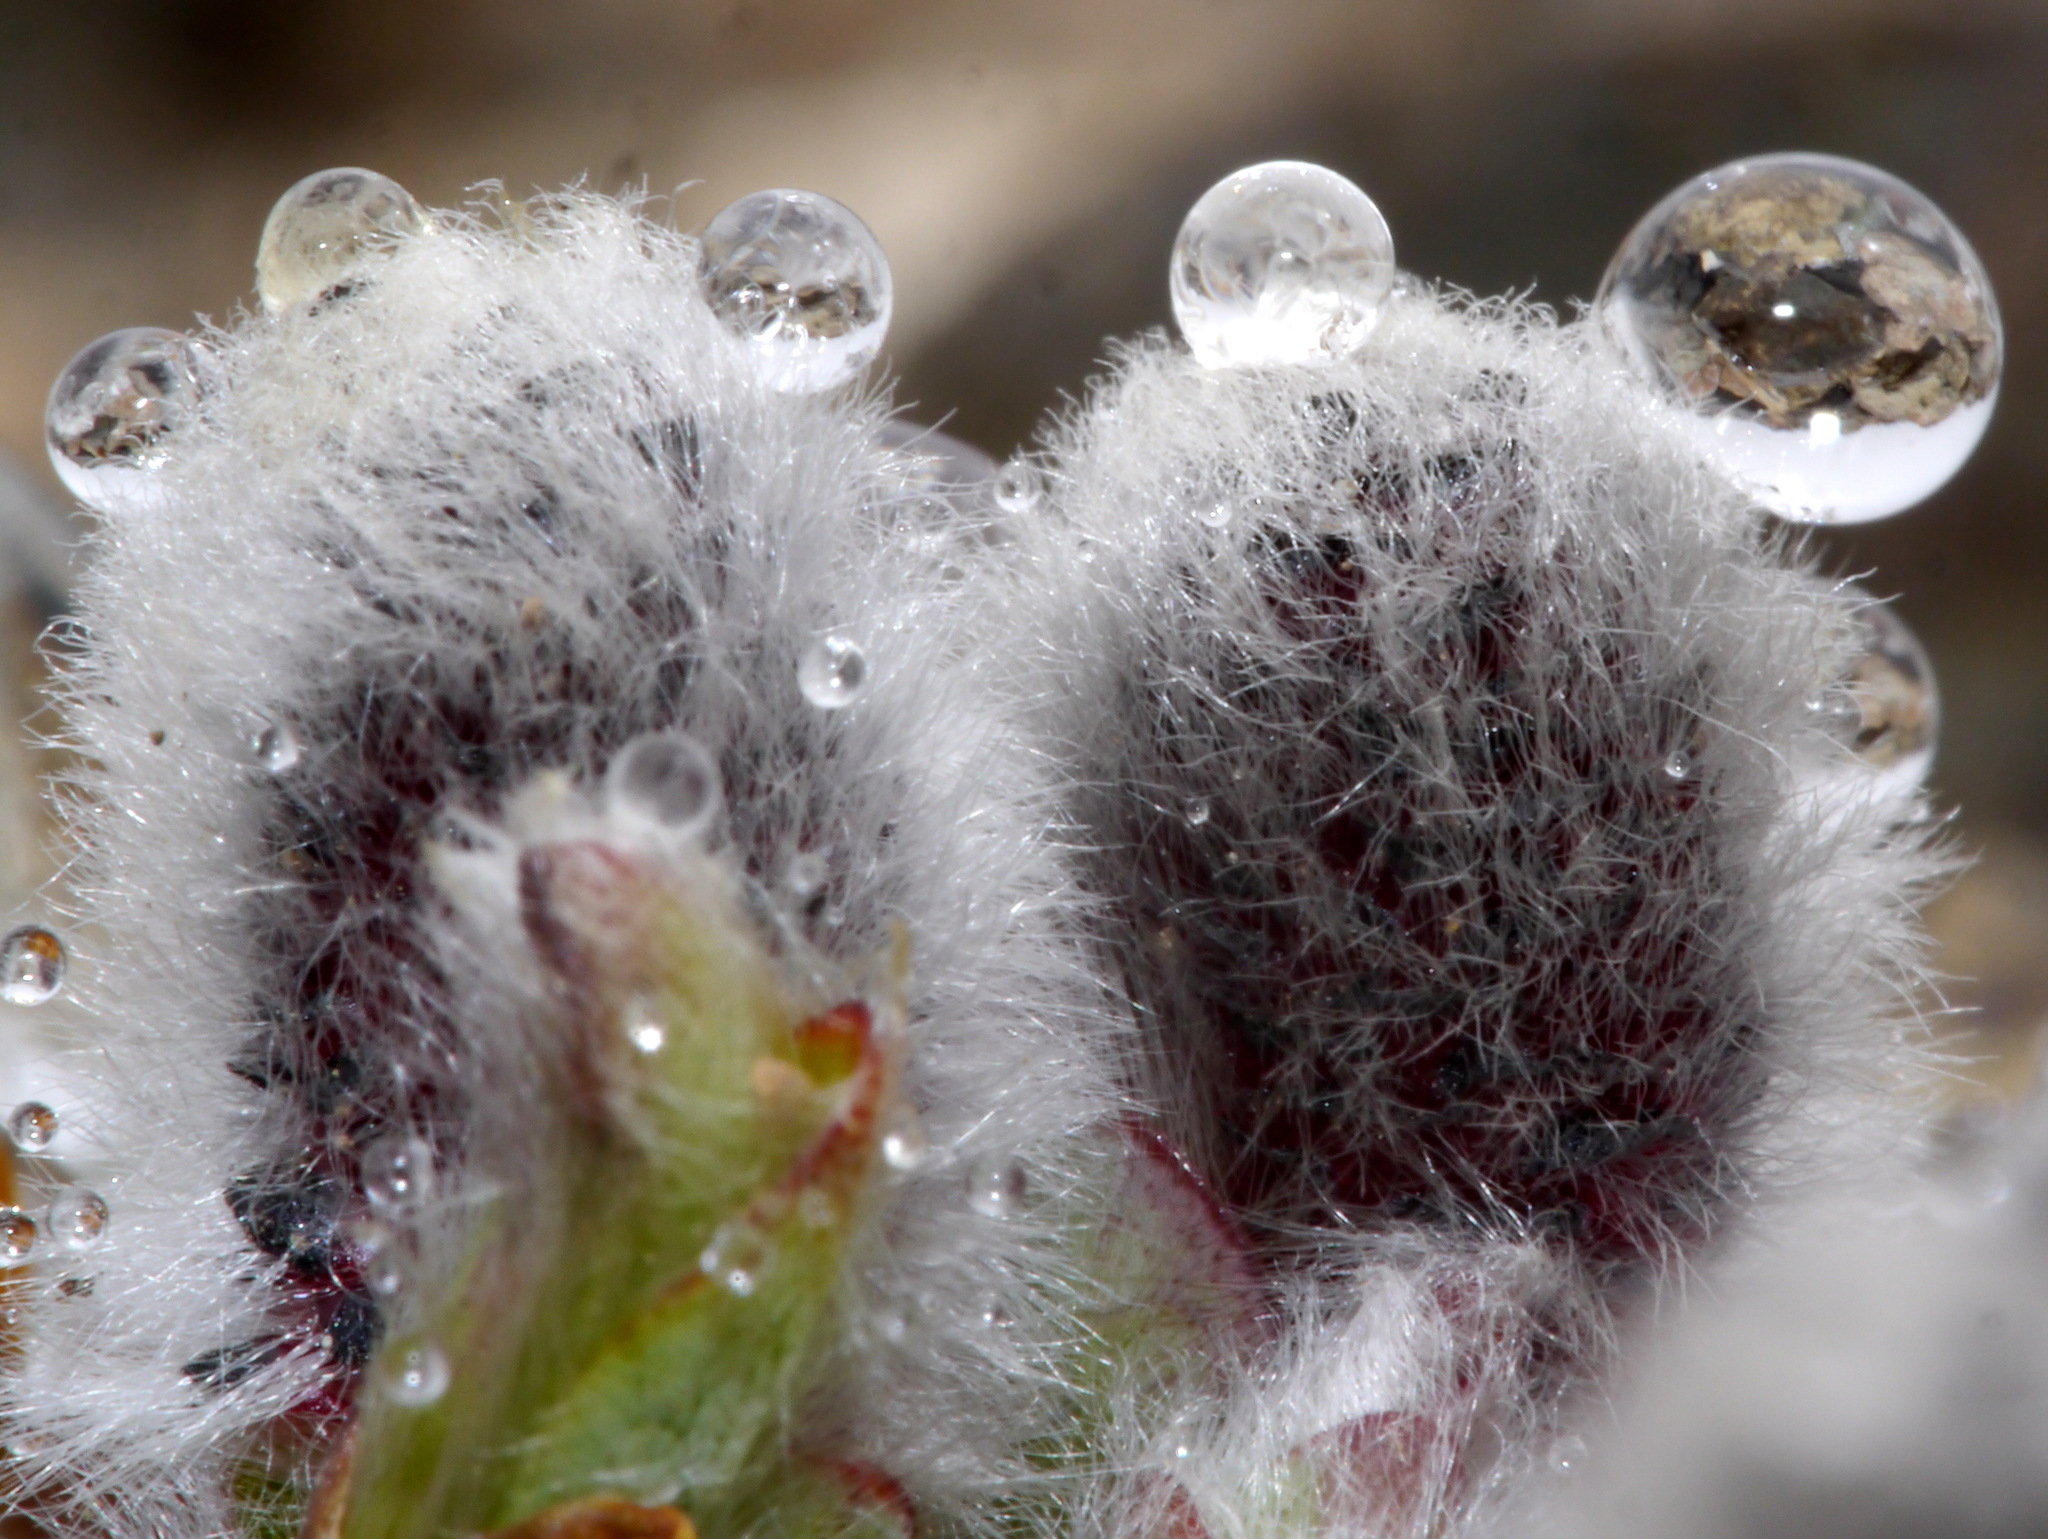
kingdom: Plantae
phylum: Tracheophyta
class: Magnoliopsida
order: Malpighiales
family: Salicaceae
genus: Salix
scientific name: Salix arctica
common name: Arctic willow
